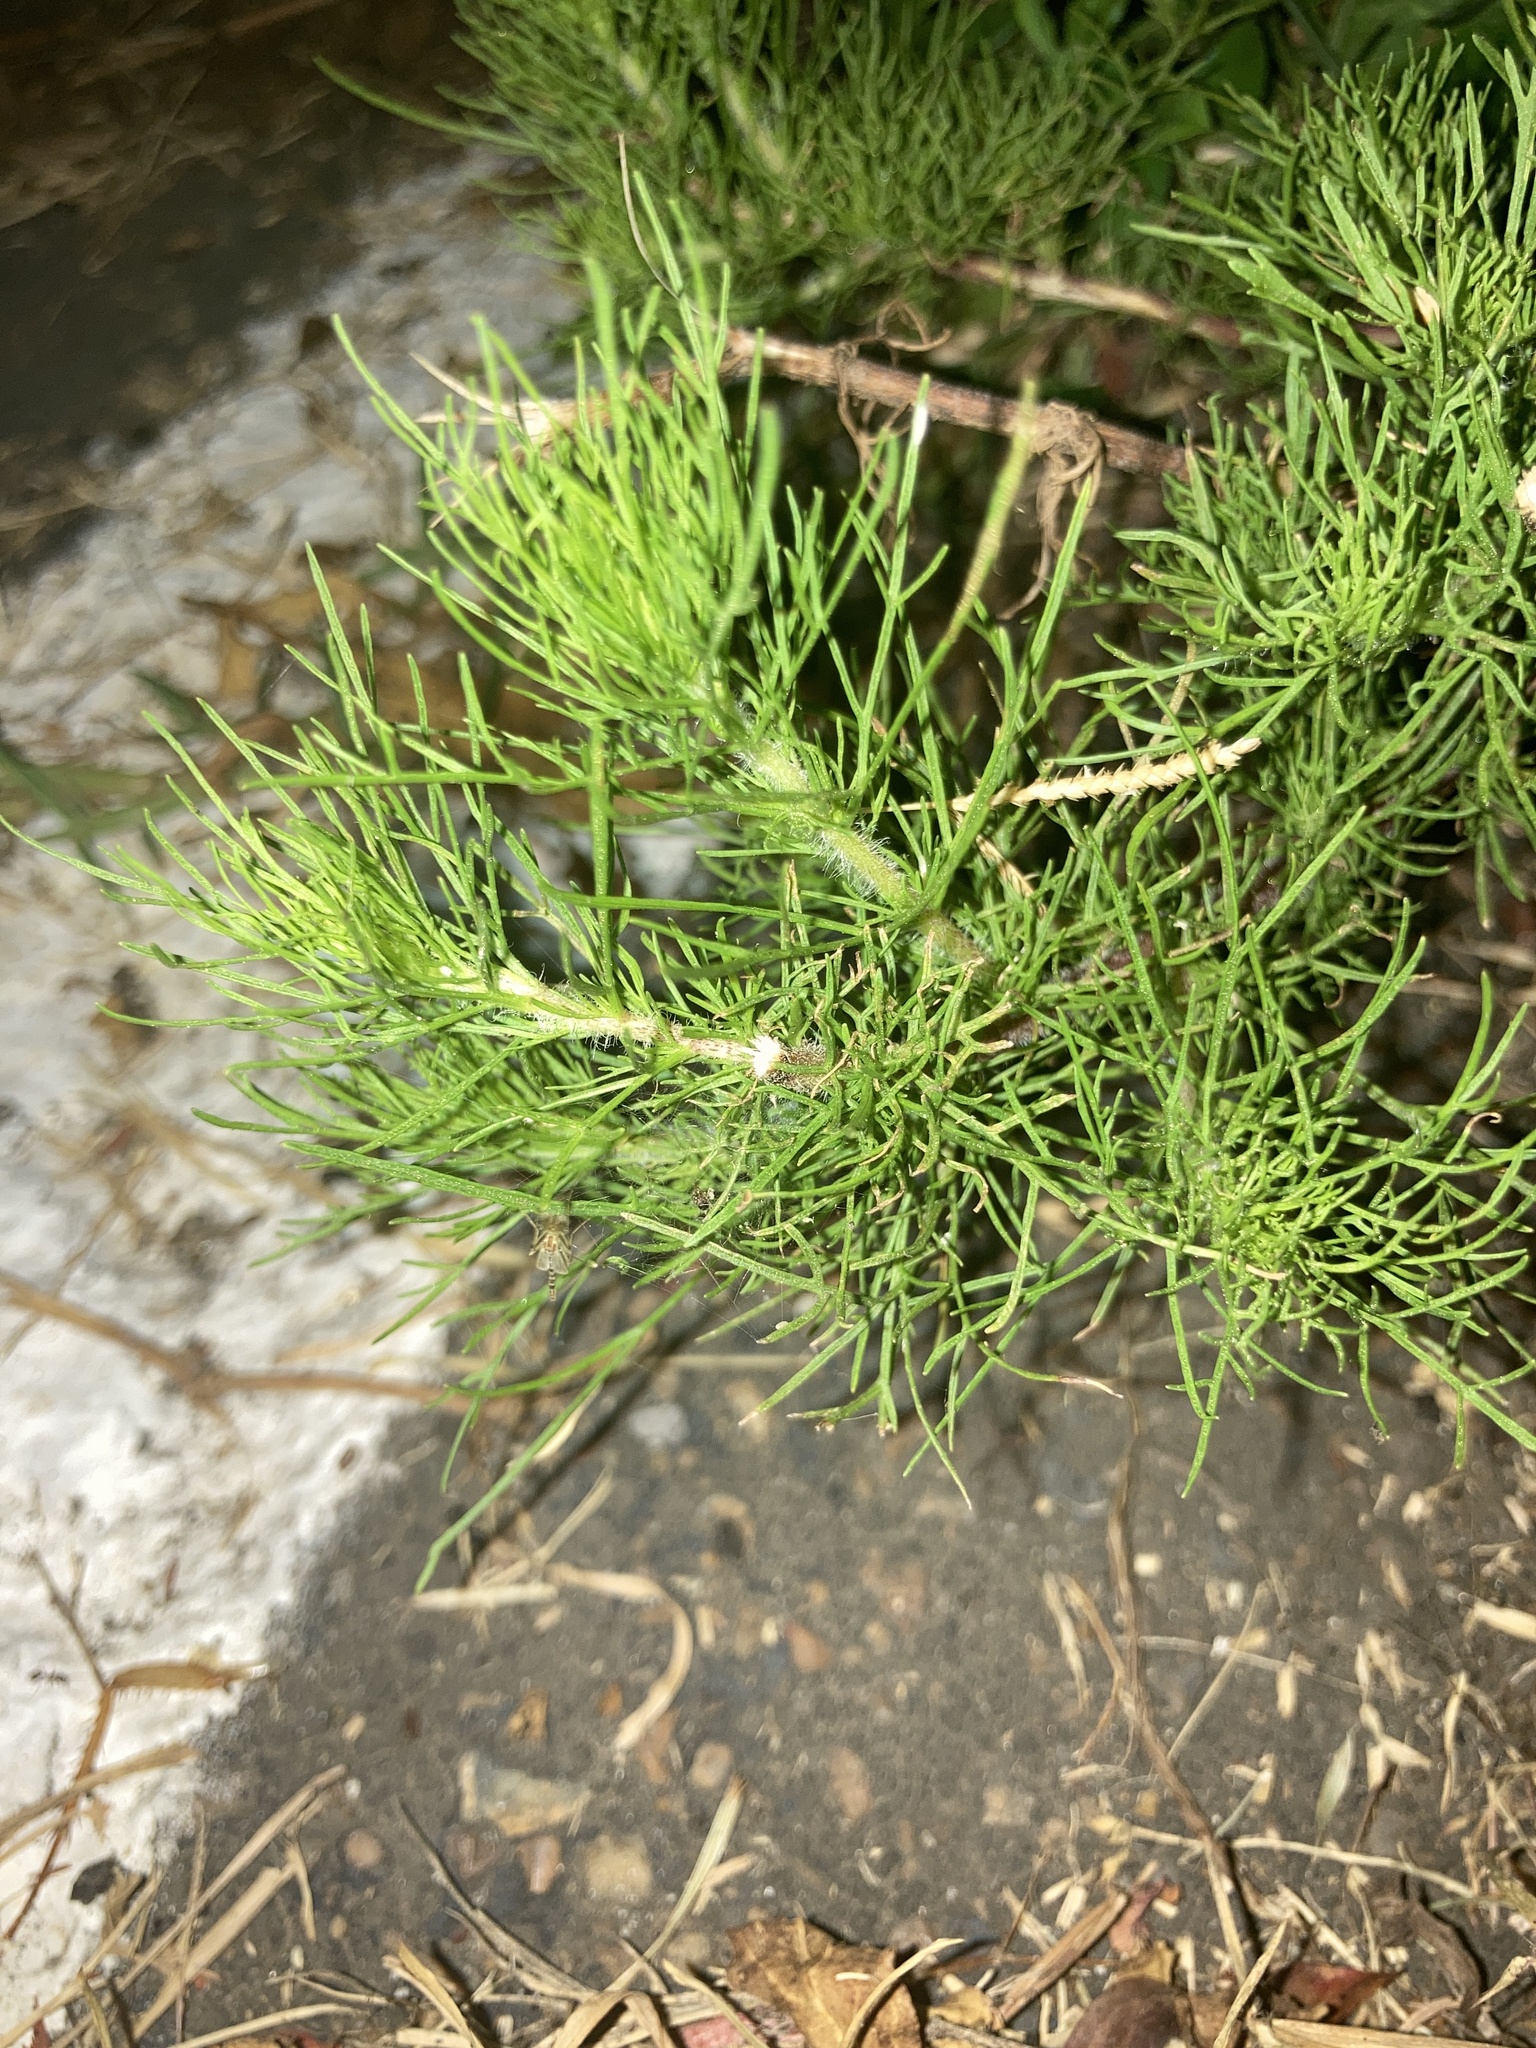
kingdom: Plantae
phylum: Tracheophyta
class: Magnoliopsida
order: Asterales
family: Asteraceae
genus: Eupatorium
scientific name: Eupatorium capillifolium
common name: Dog-fennel
